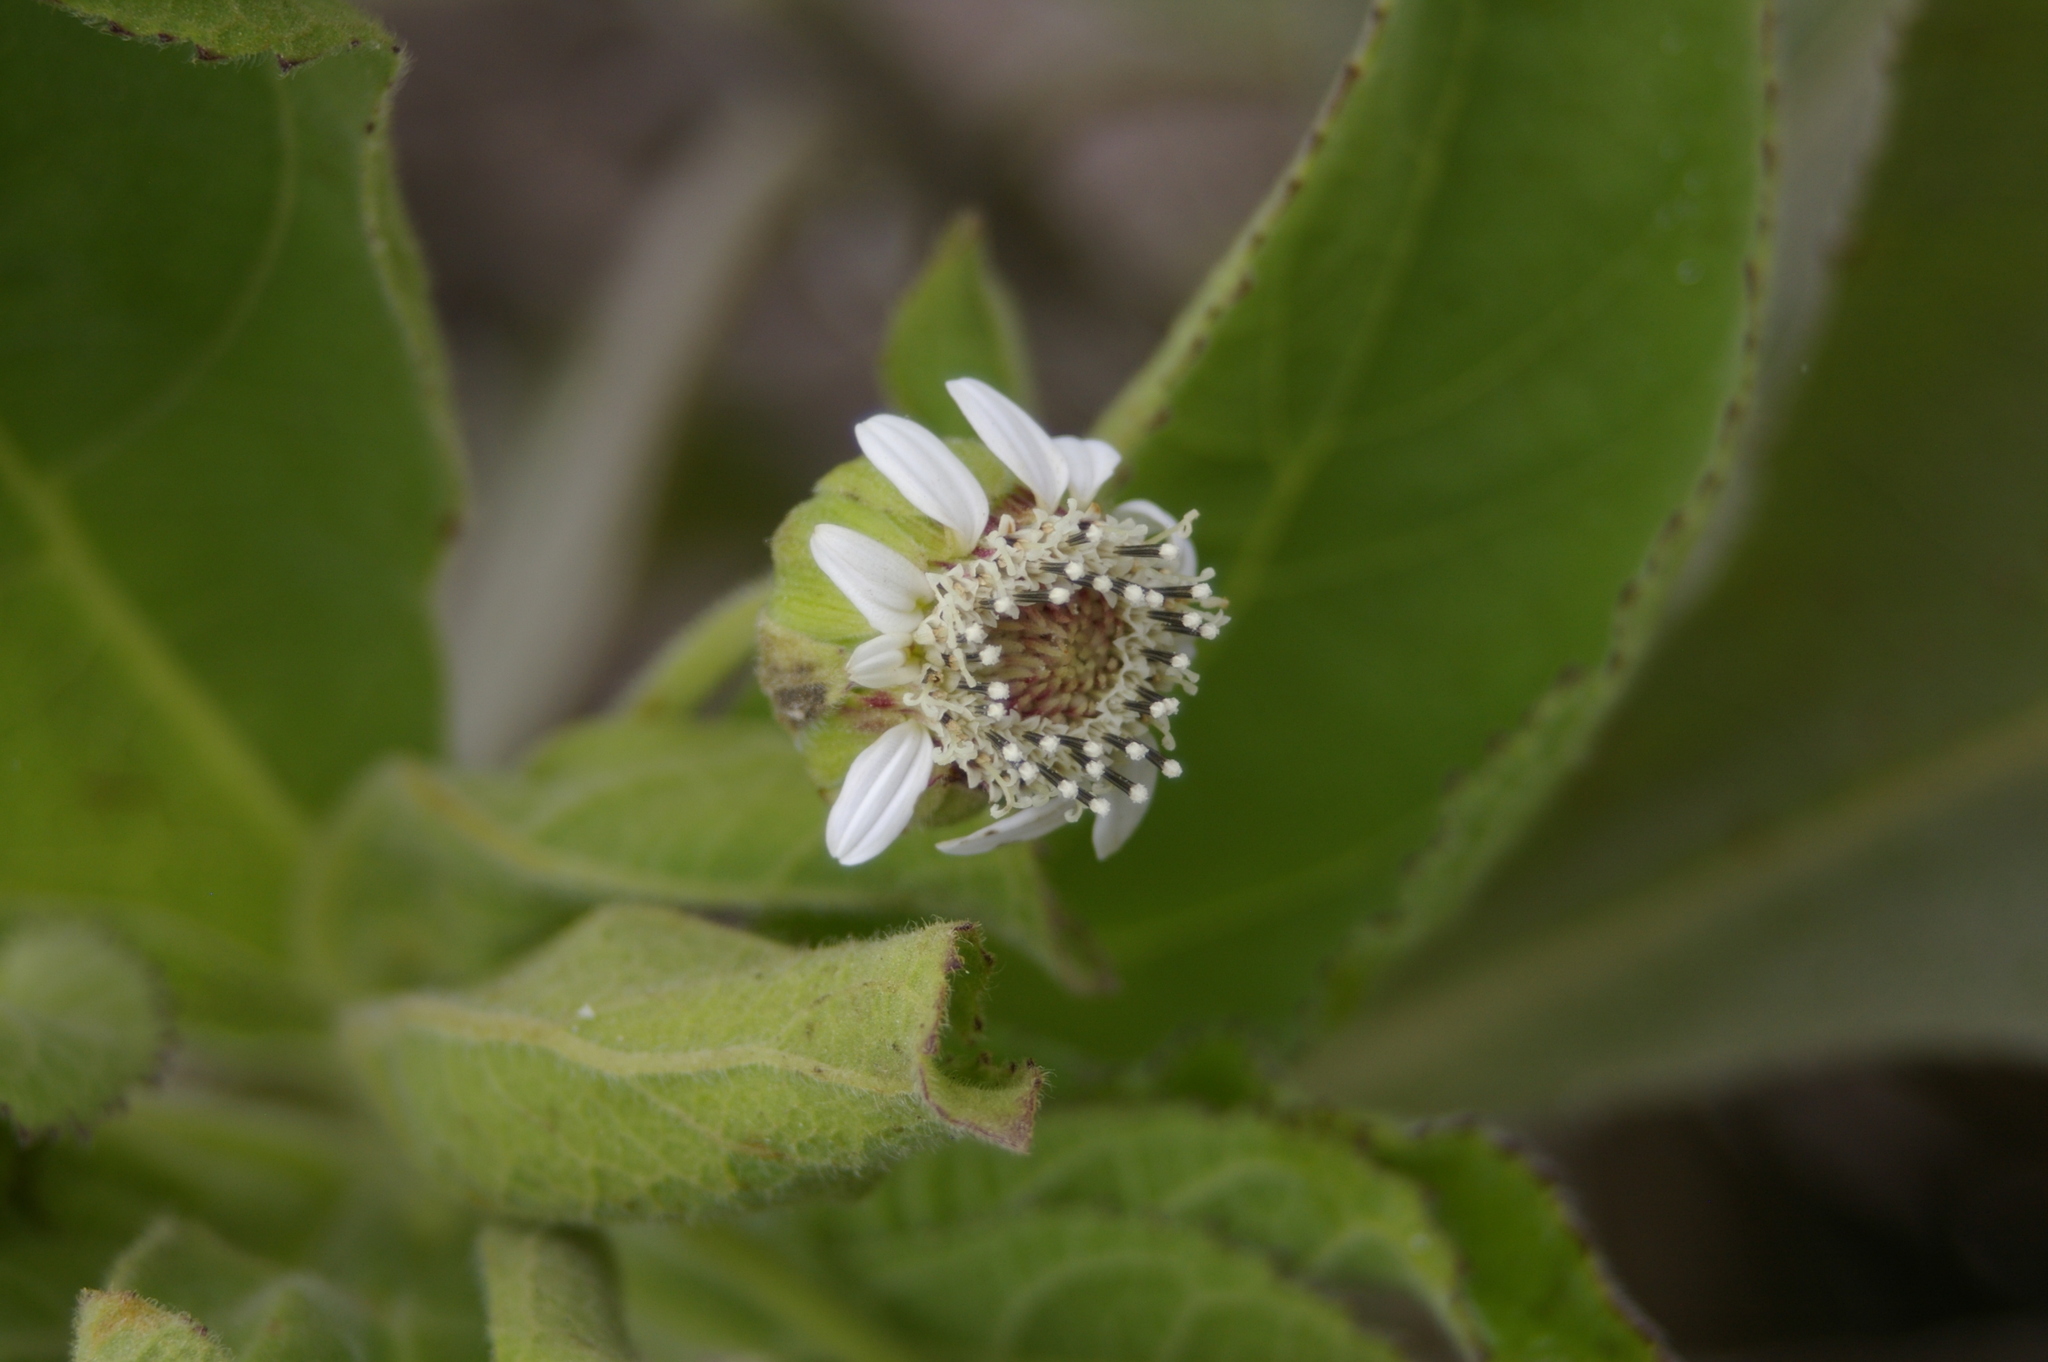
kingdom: Plantae
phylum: Tracheophyta
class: Magnoliopsida
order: Asterales
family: Asteraceae
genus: Scalesia
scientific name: Scalesia affinis
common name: Radiate-headed scalesia
